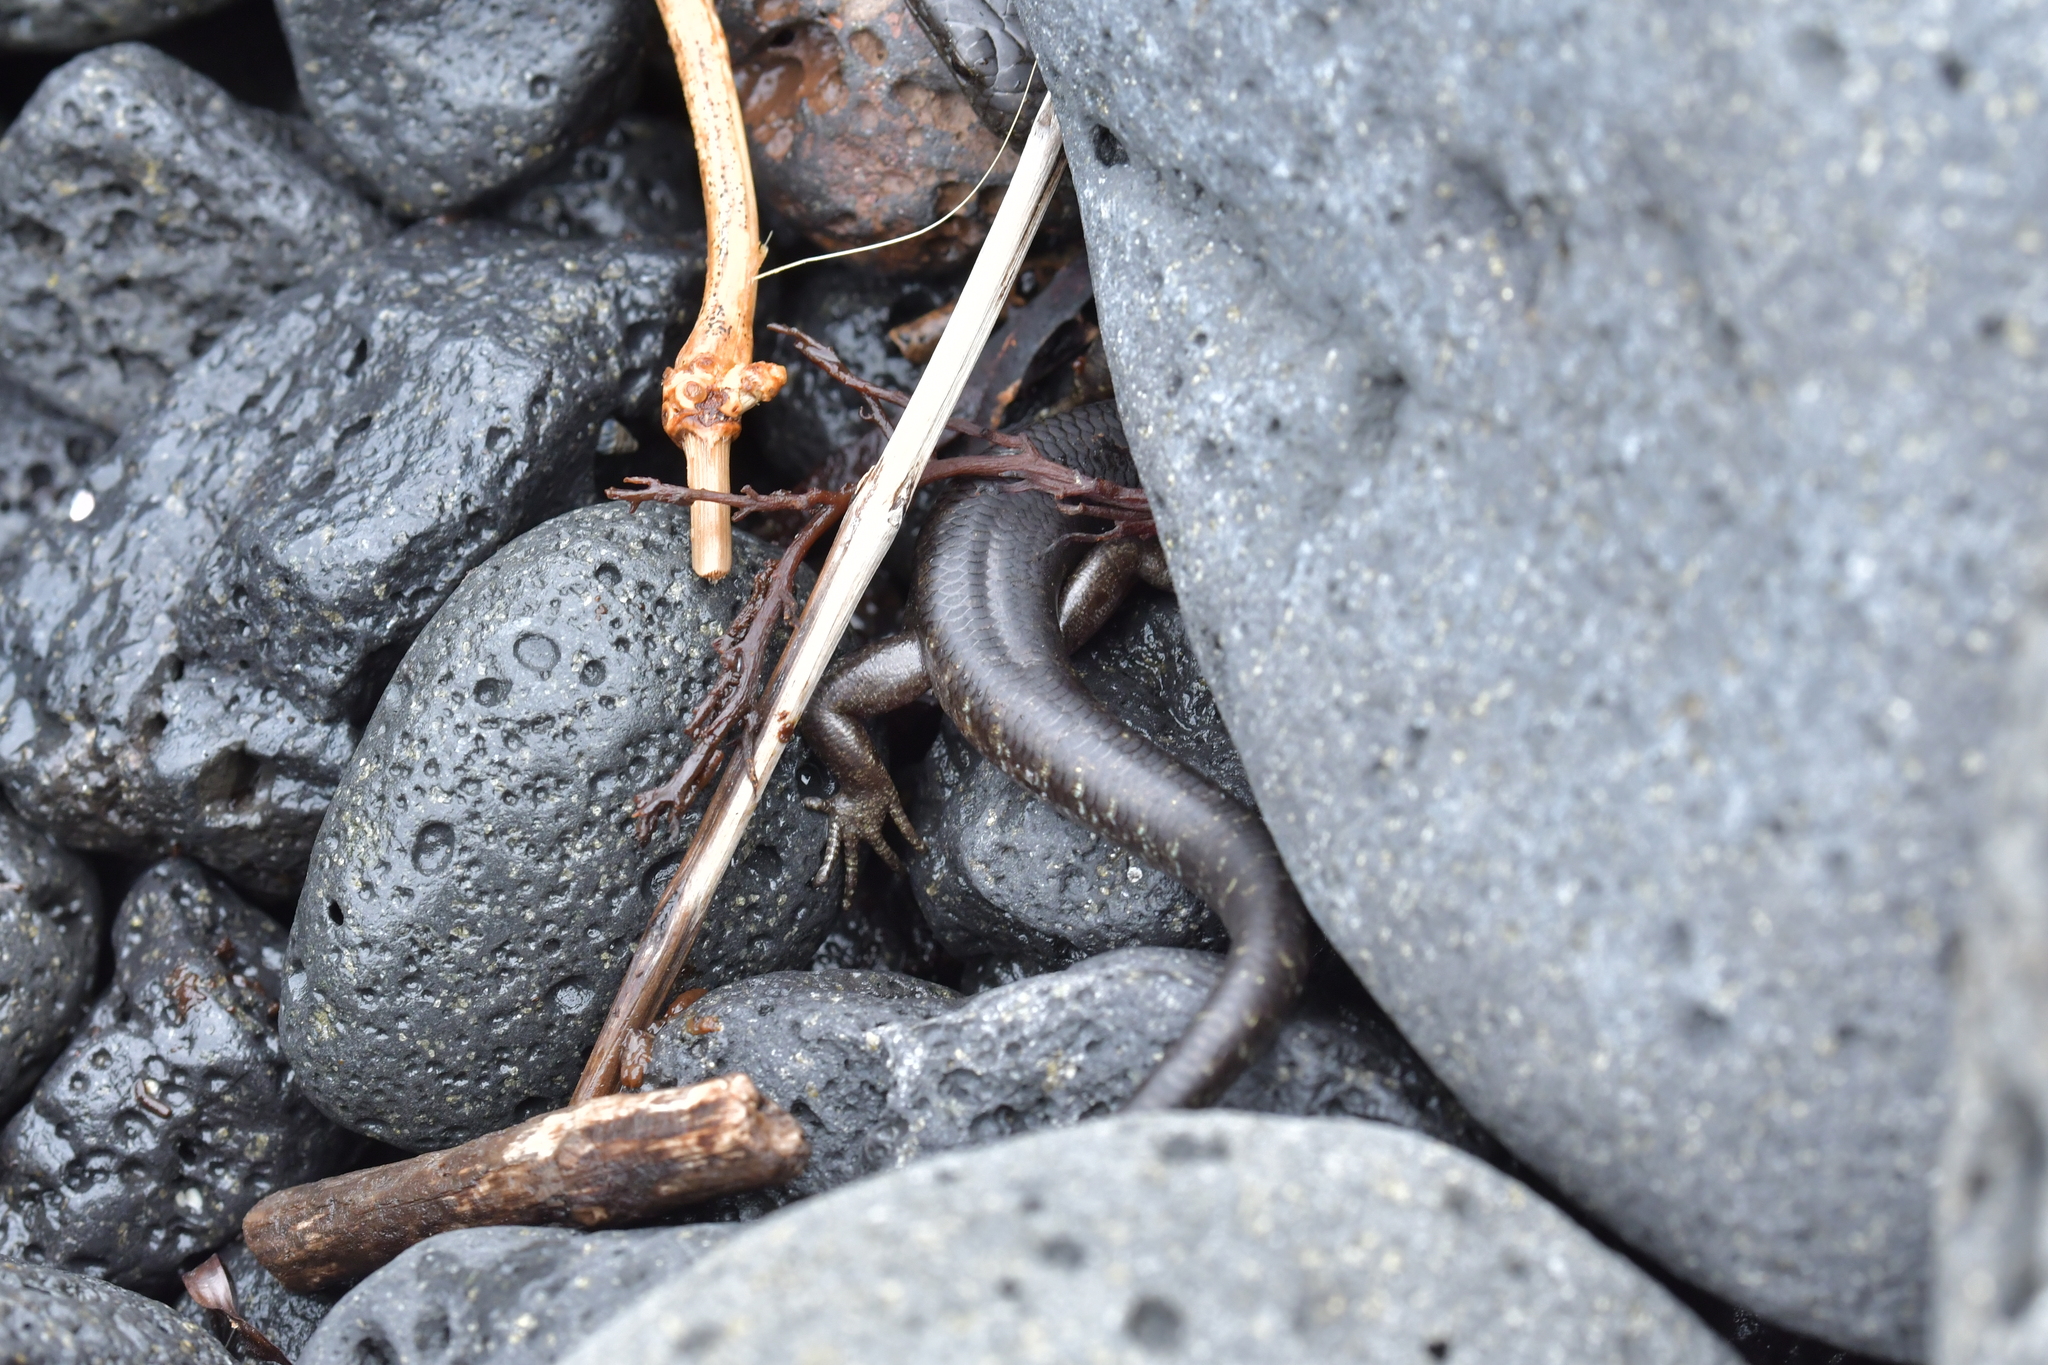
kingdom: Animalia
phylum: Chordata
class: Squamata
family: Scincidae
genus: Oligosoma
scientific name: Oligosoma suteri
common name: Egg-laying skink
